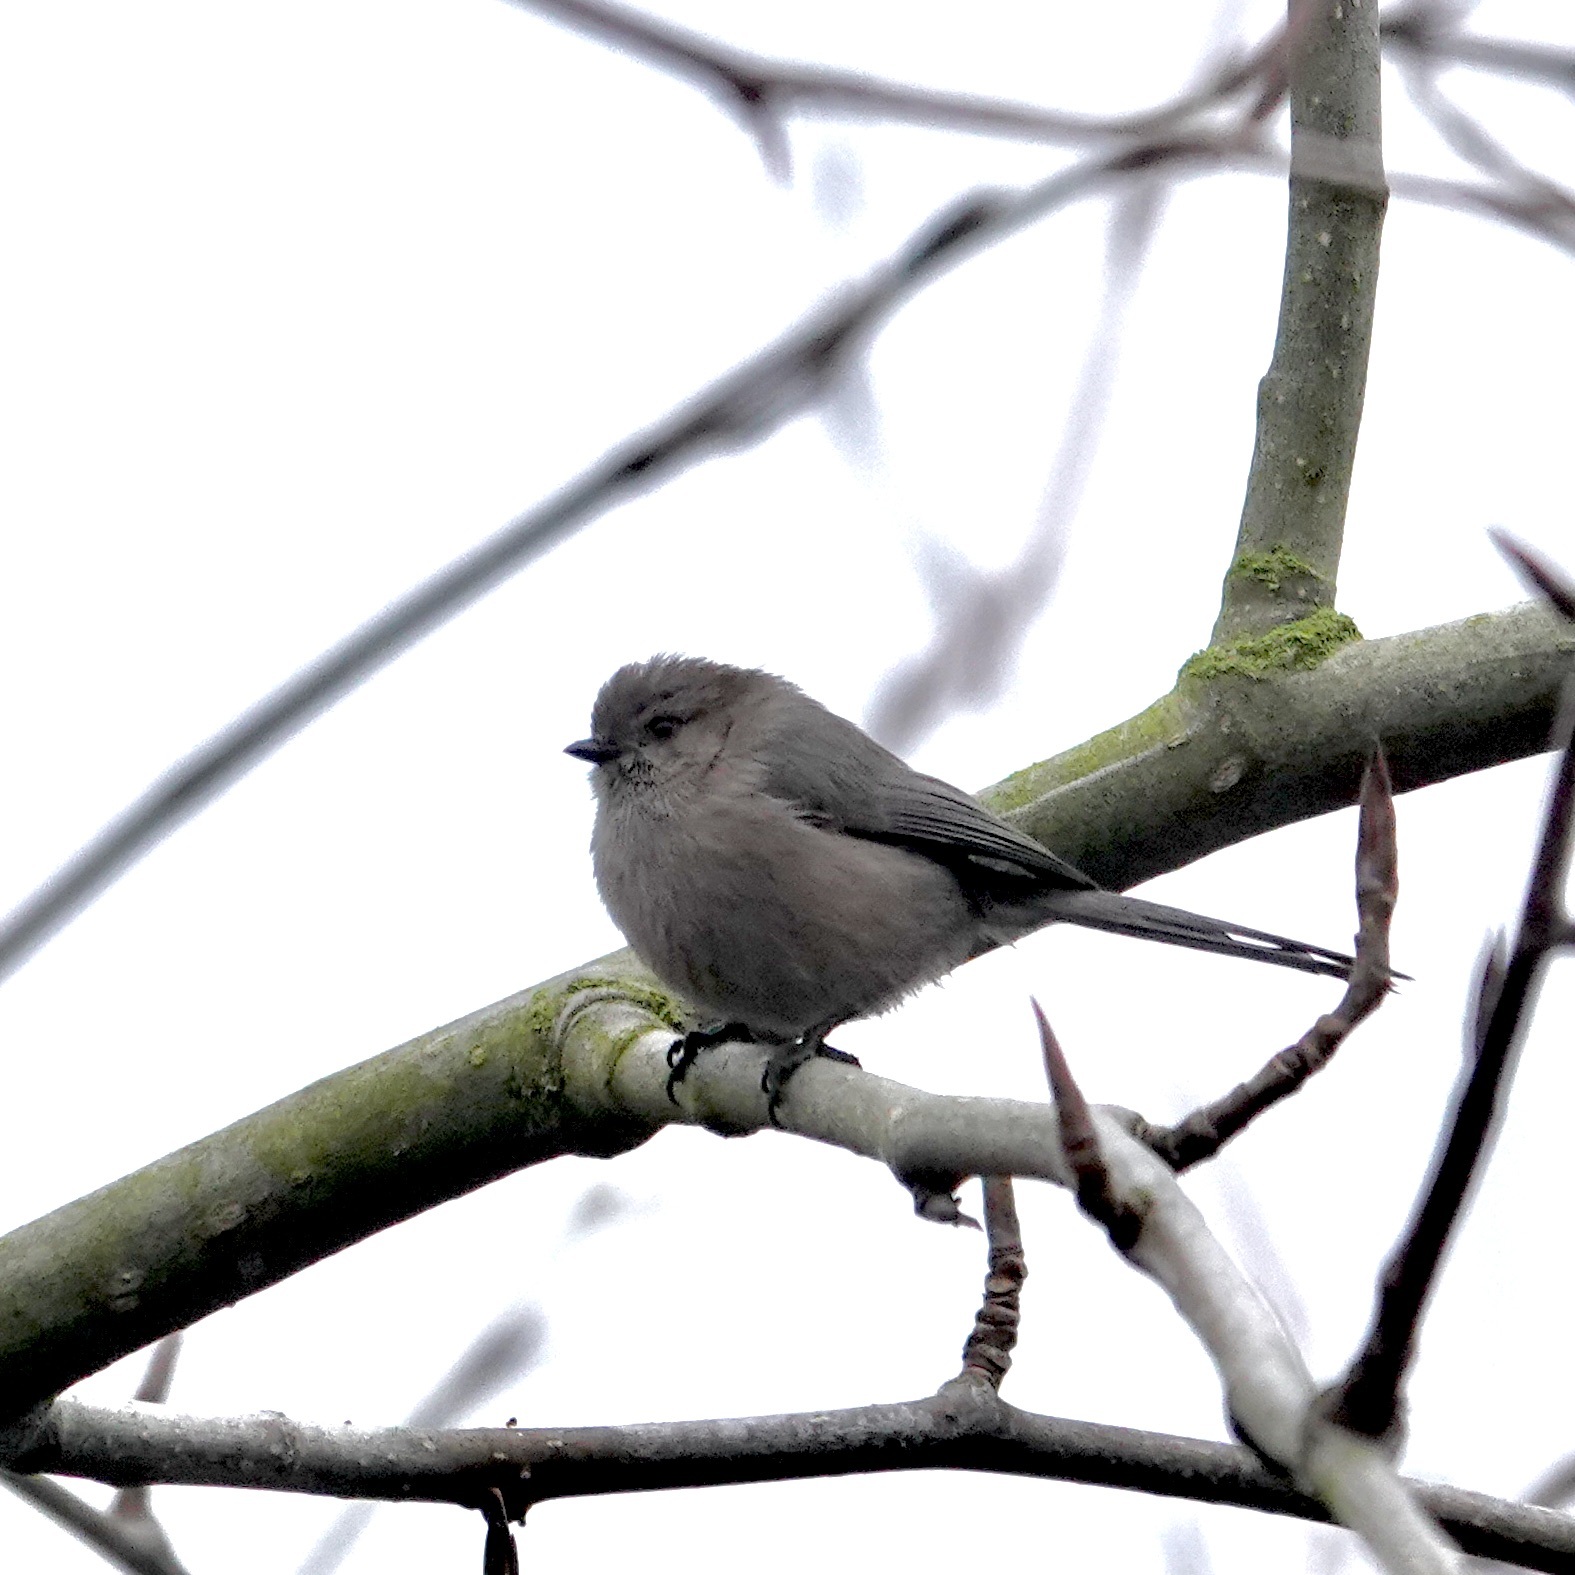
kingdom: Animalia
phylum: Chordata
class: Aves
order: Passeriformes
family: Aegithalidae
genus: Psaltriparus
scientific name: Psaltriparus minimus
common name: American bushtit
